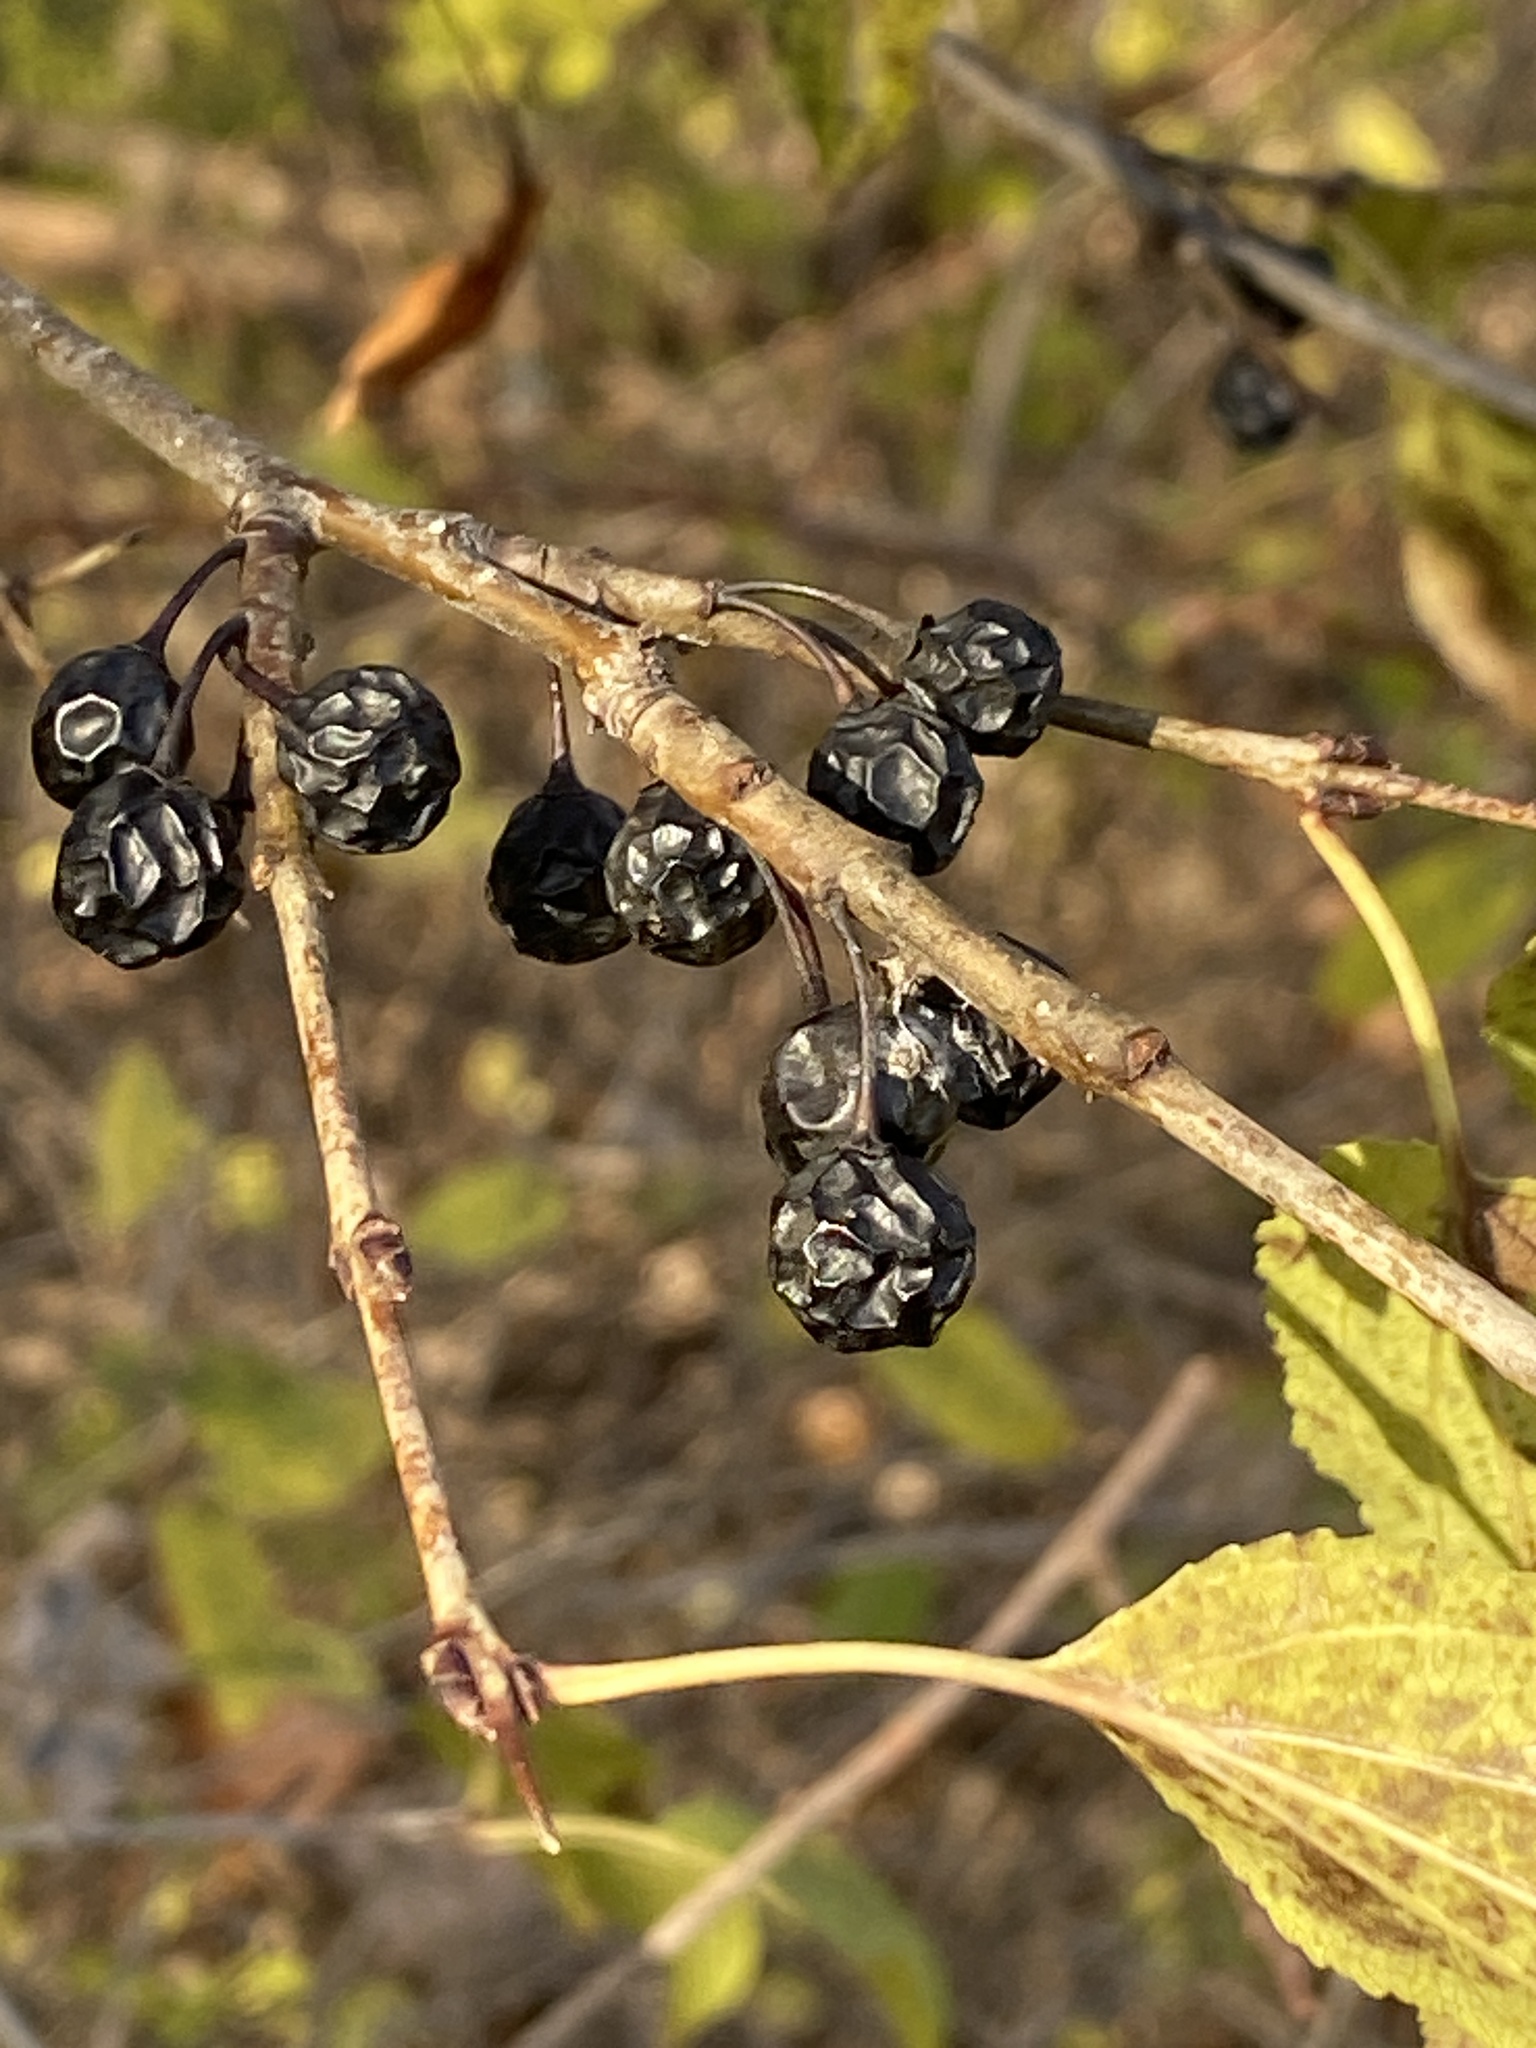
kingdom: Plantae
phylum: Tracheophyta
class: Magnoliopsida
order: Rosales
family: Rhamnaceae
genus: Rhamnus
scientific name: Rhamnus cathartica
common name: Common buckthorn
